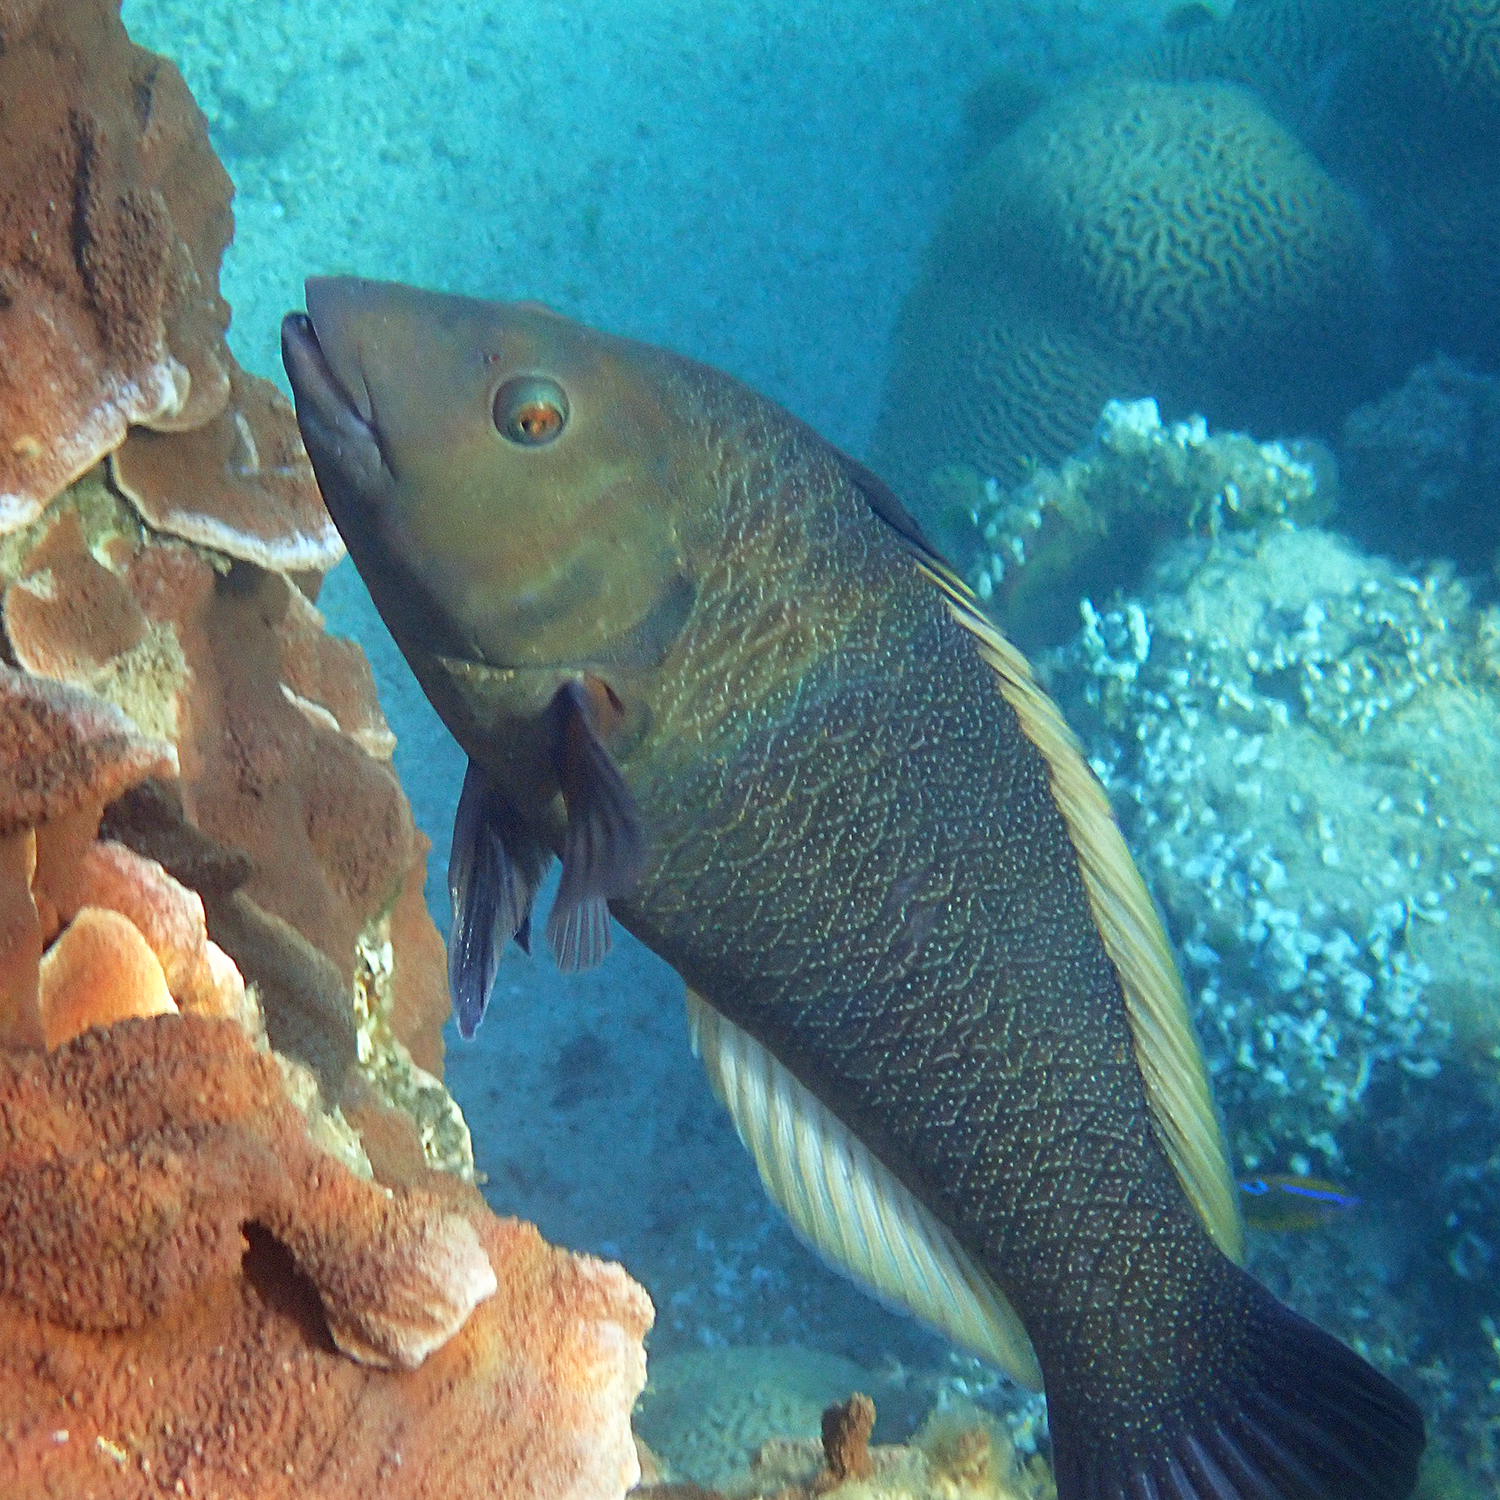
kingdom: Animalia
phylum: Chordata
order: Perciformes
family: Labridae
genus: Notolabrus
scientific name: Notolabrus inscriptus
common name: Green wrasse
